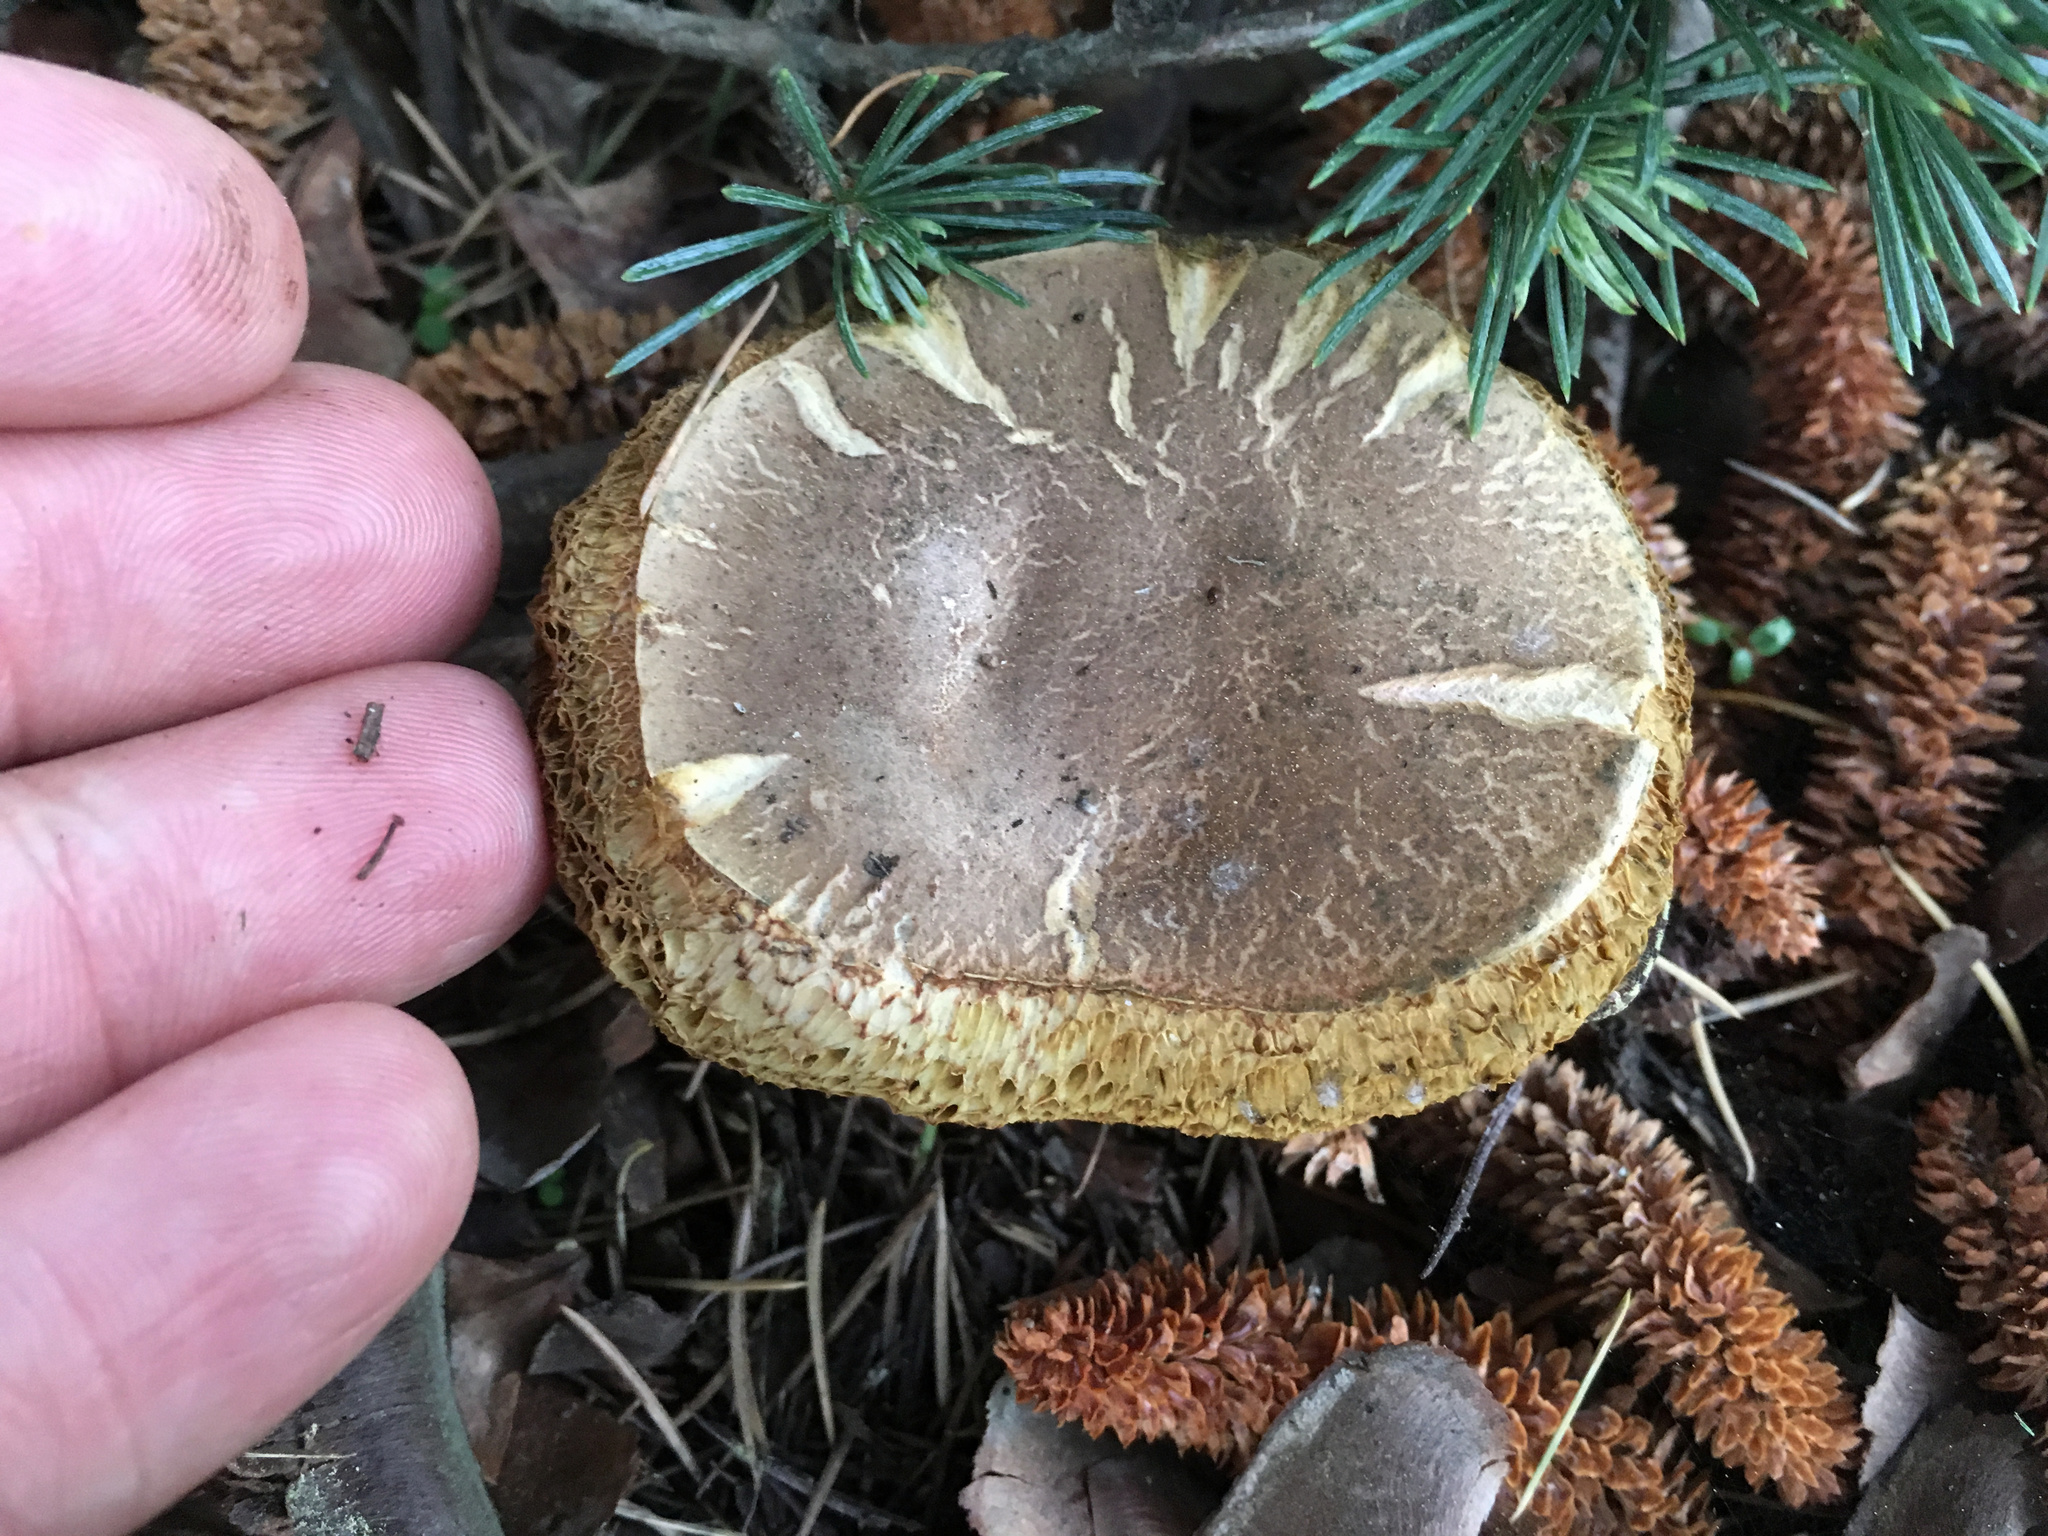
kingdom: Fungi
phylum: Basidiomycota
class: Agaricomycetes
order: Boletales
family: Boletaceae
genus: Xerocomellus
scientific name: Xerocomellus cisalpinus
